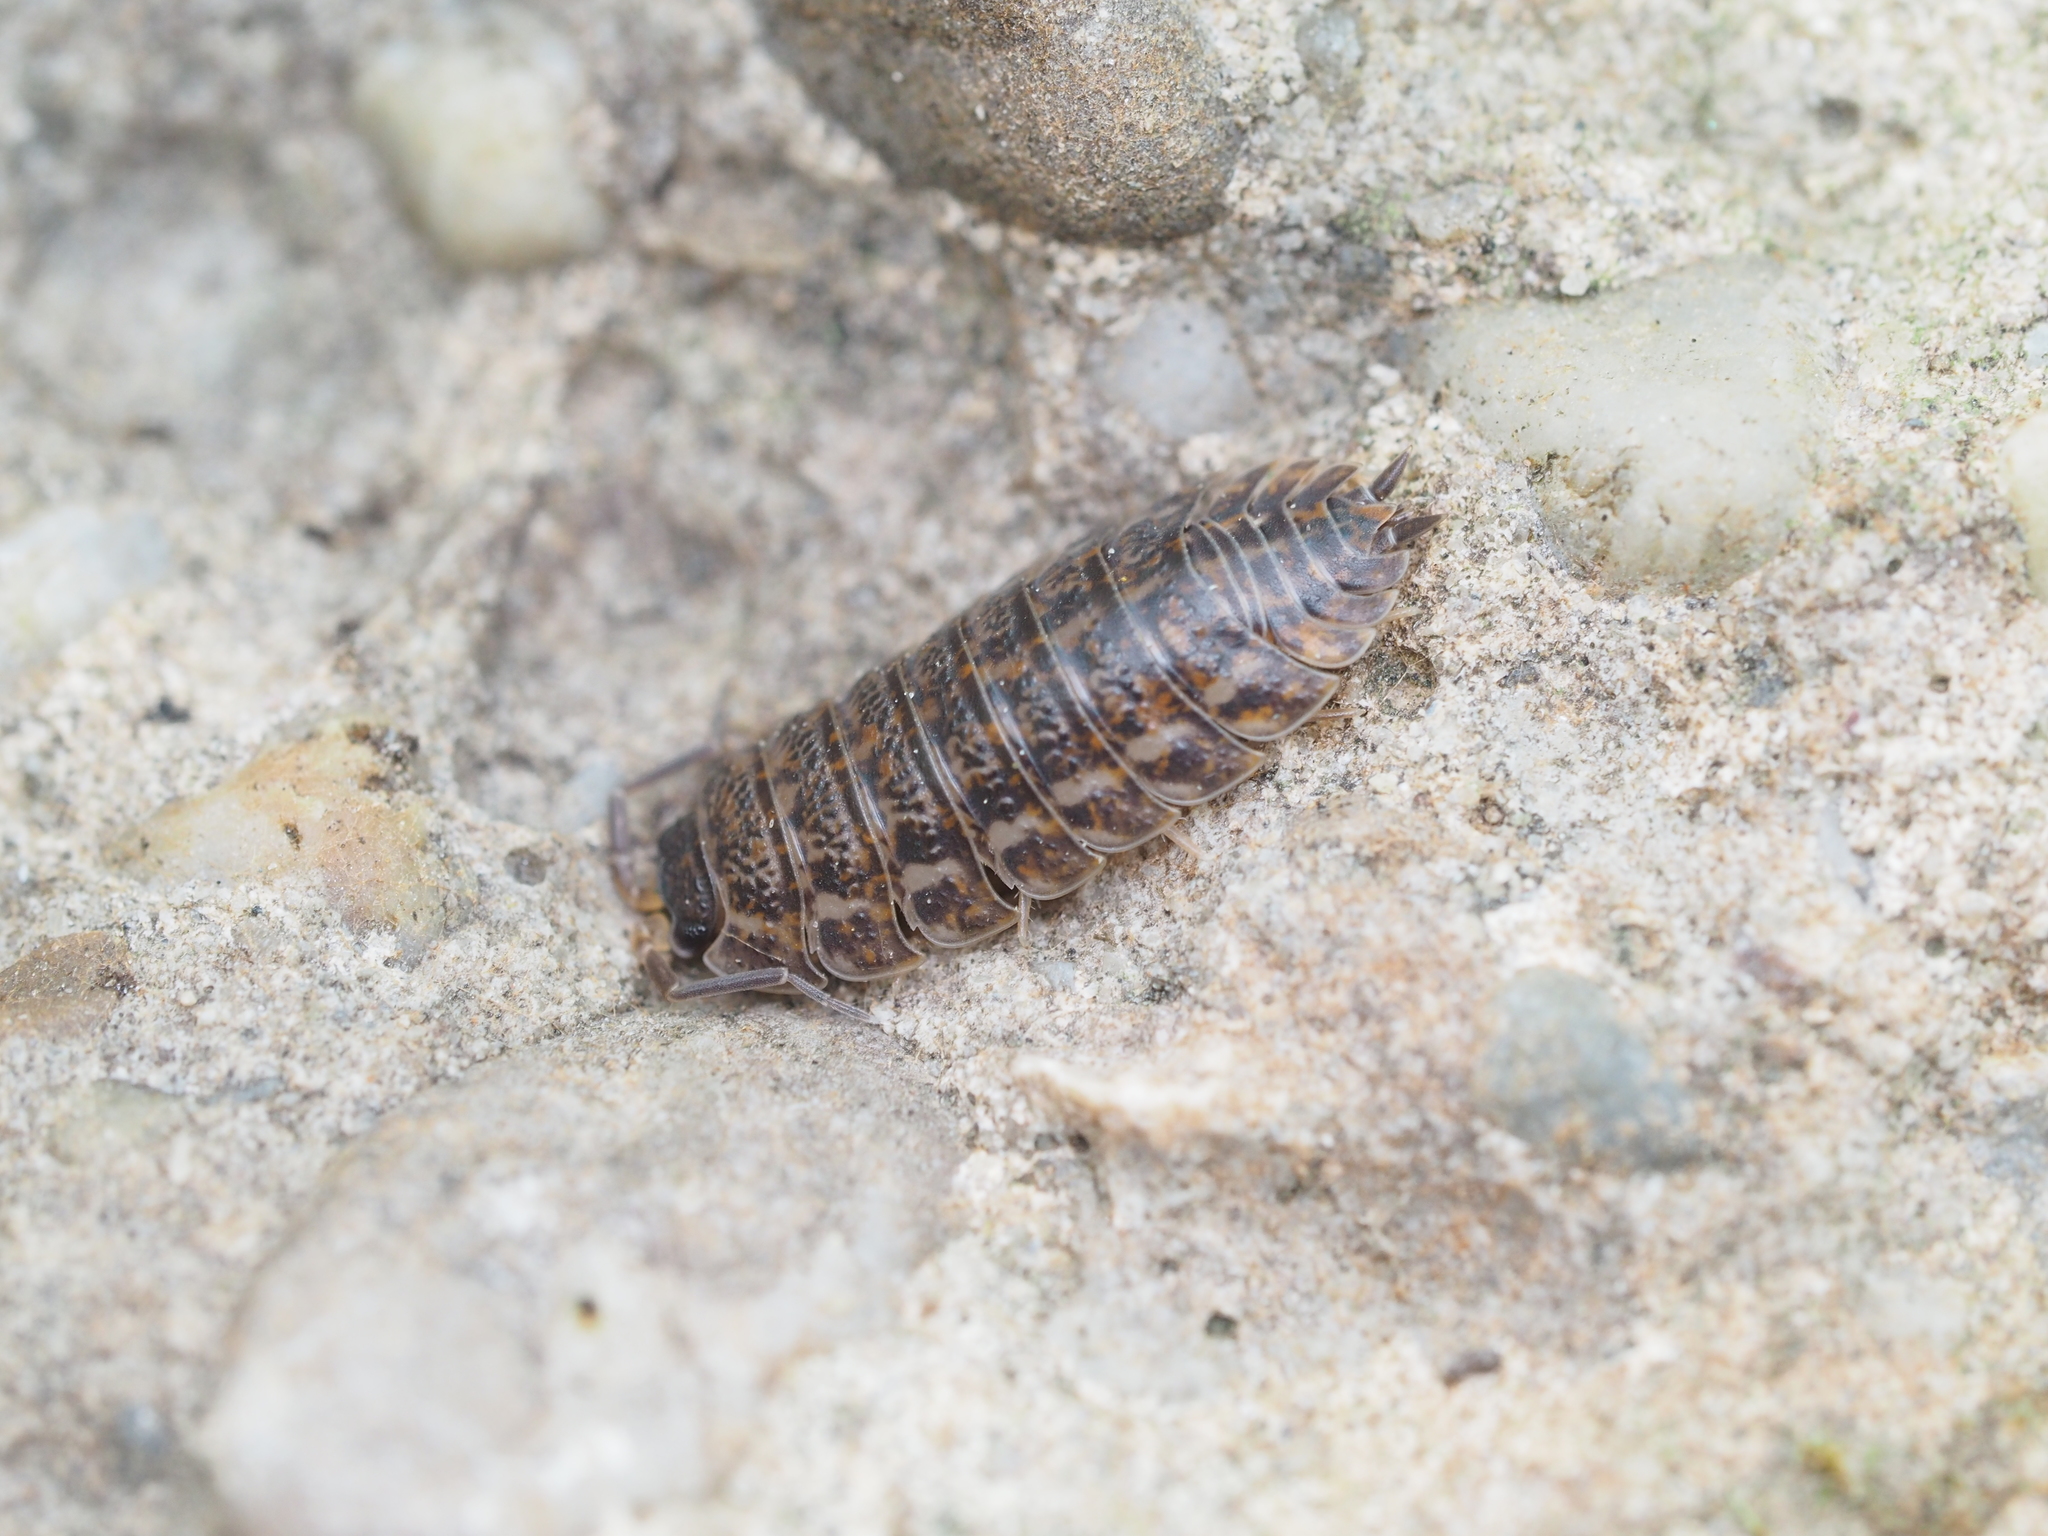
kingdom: Animalia
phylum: Arthropoda
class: Malacostraca
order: Isopoda
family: Trachelipodidae
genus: Trachelipus
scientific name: Trachelipus rathkii
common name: Isopod
